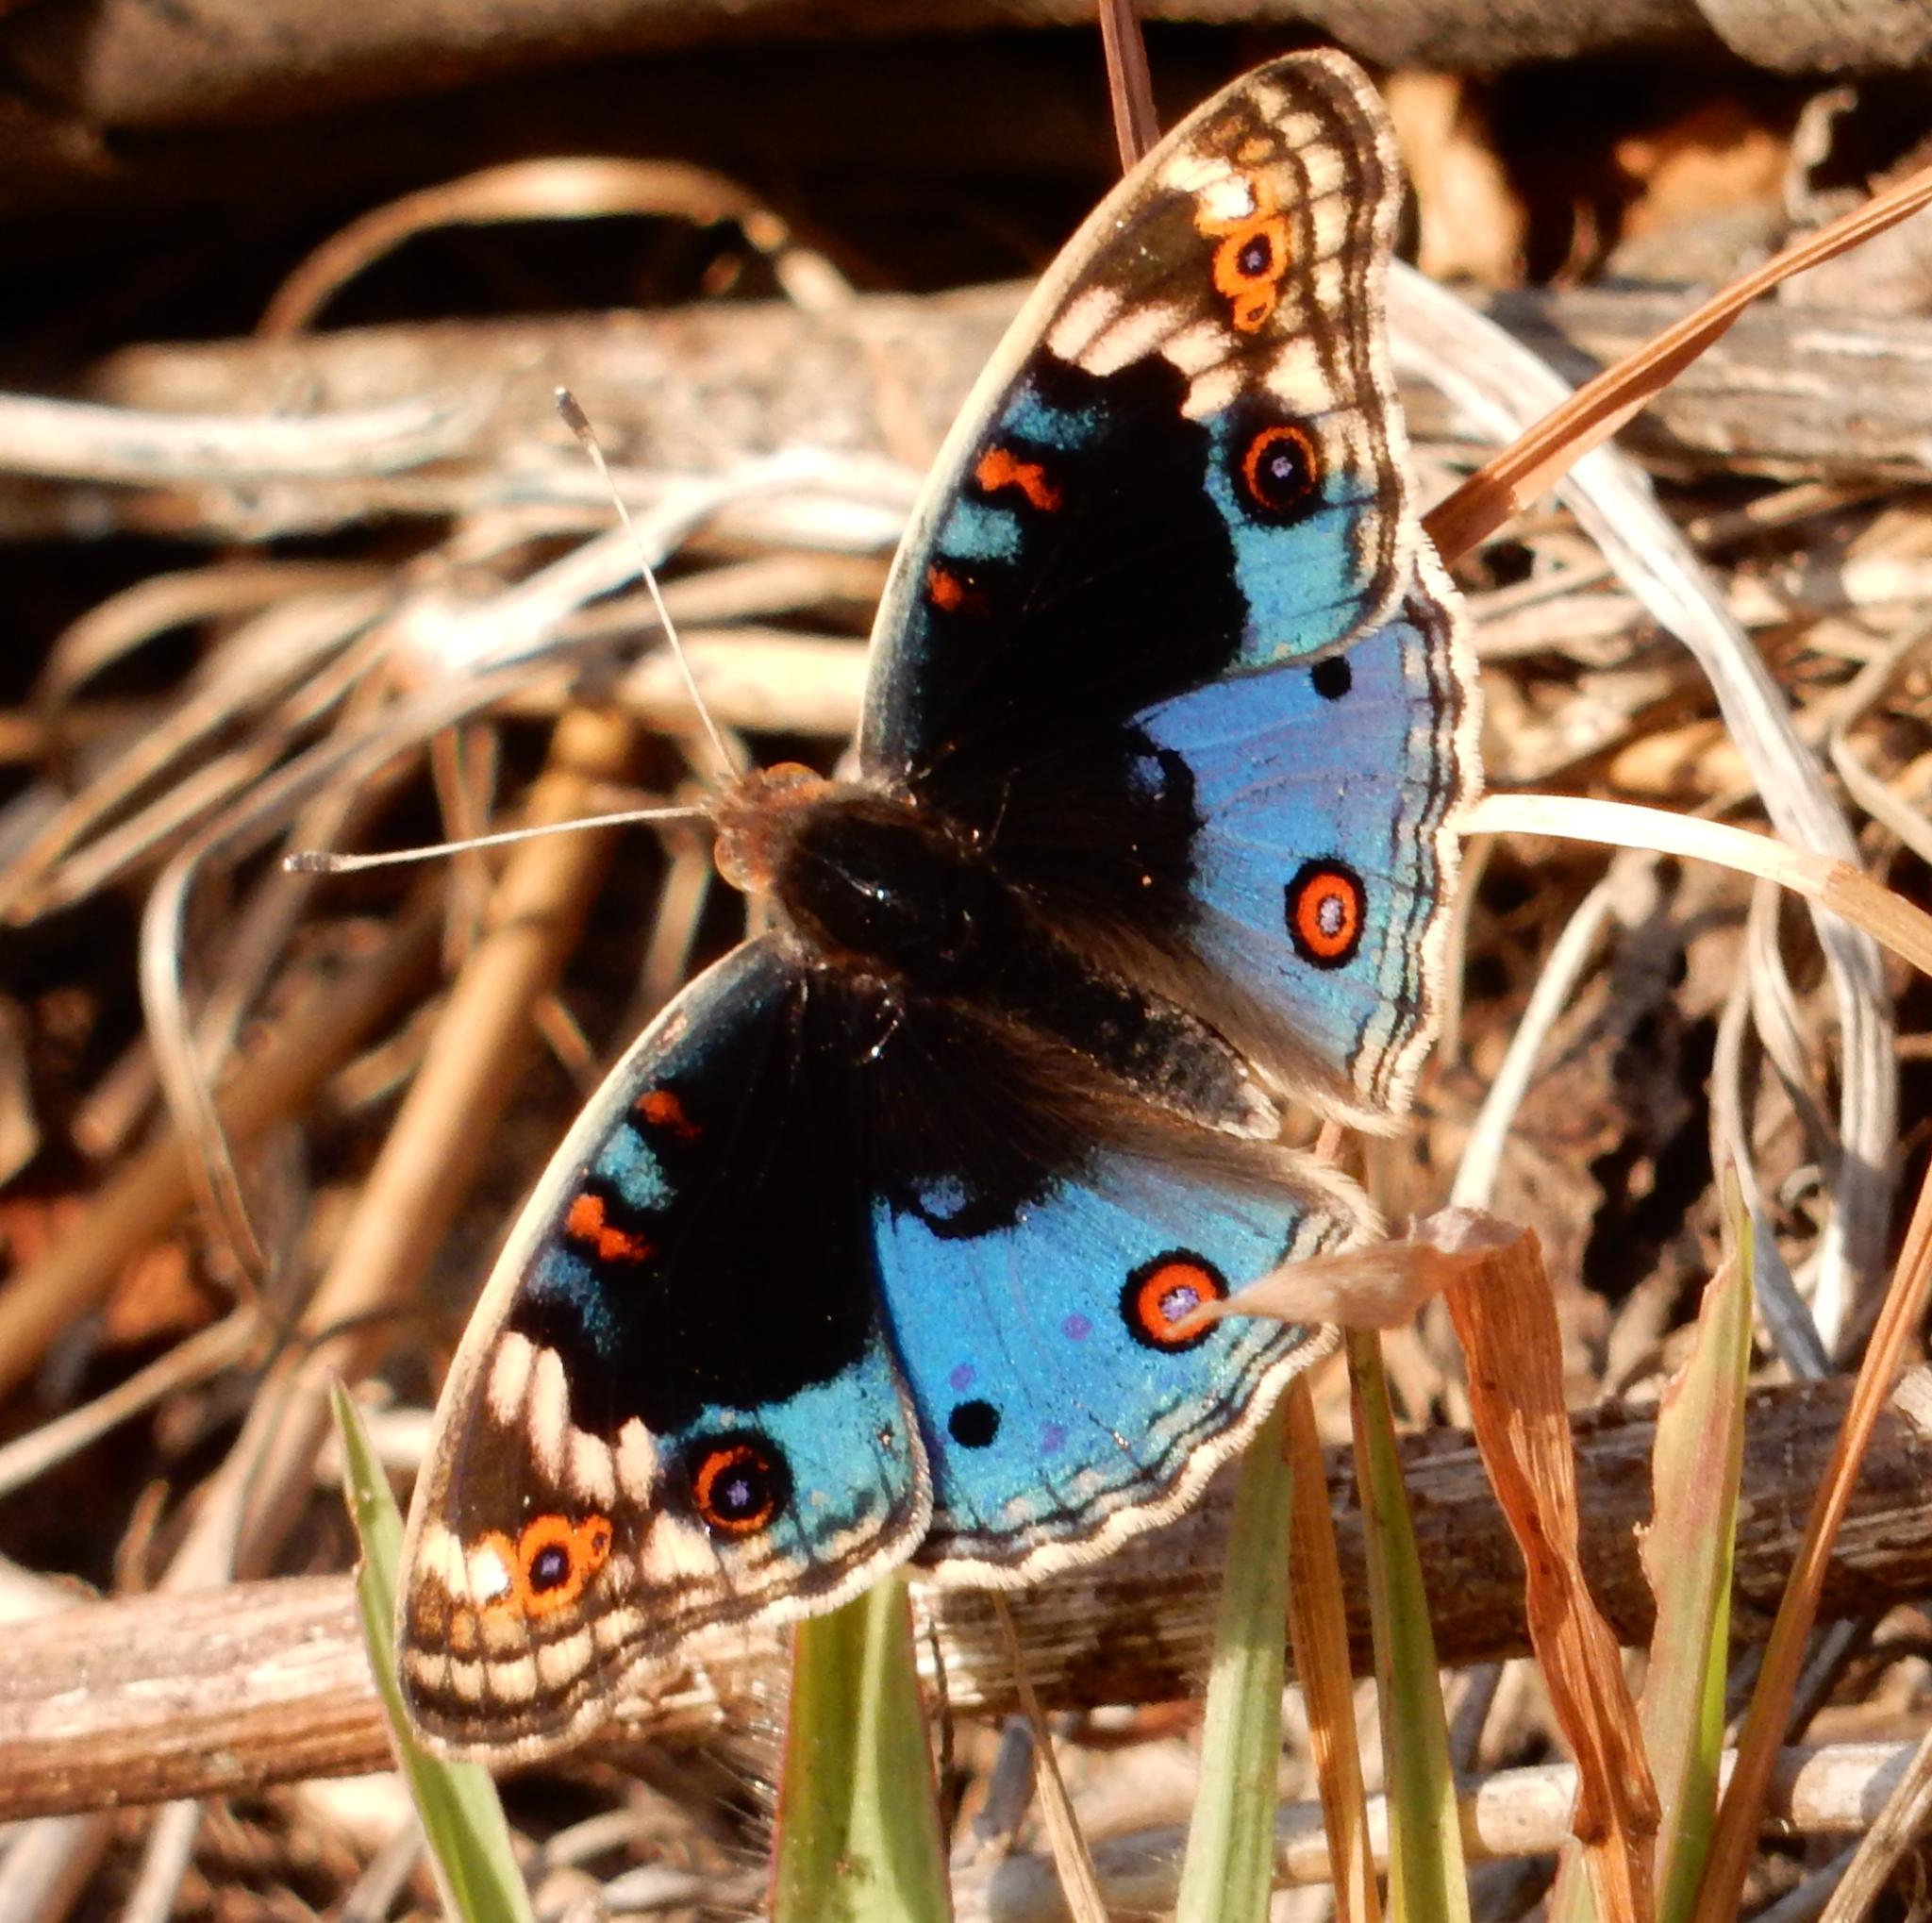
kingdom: Animalia
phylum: Arthropoda
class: Insecta
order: Lepidoptera
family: Nymphalidae
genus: Junonia
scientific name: Junonia orithya
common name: Blue pansy
